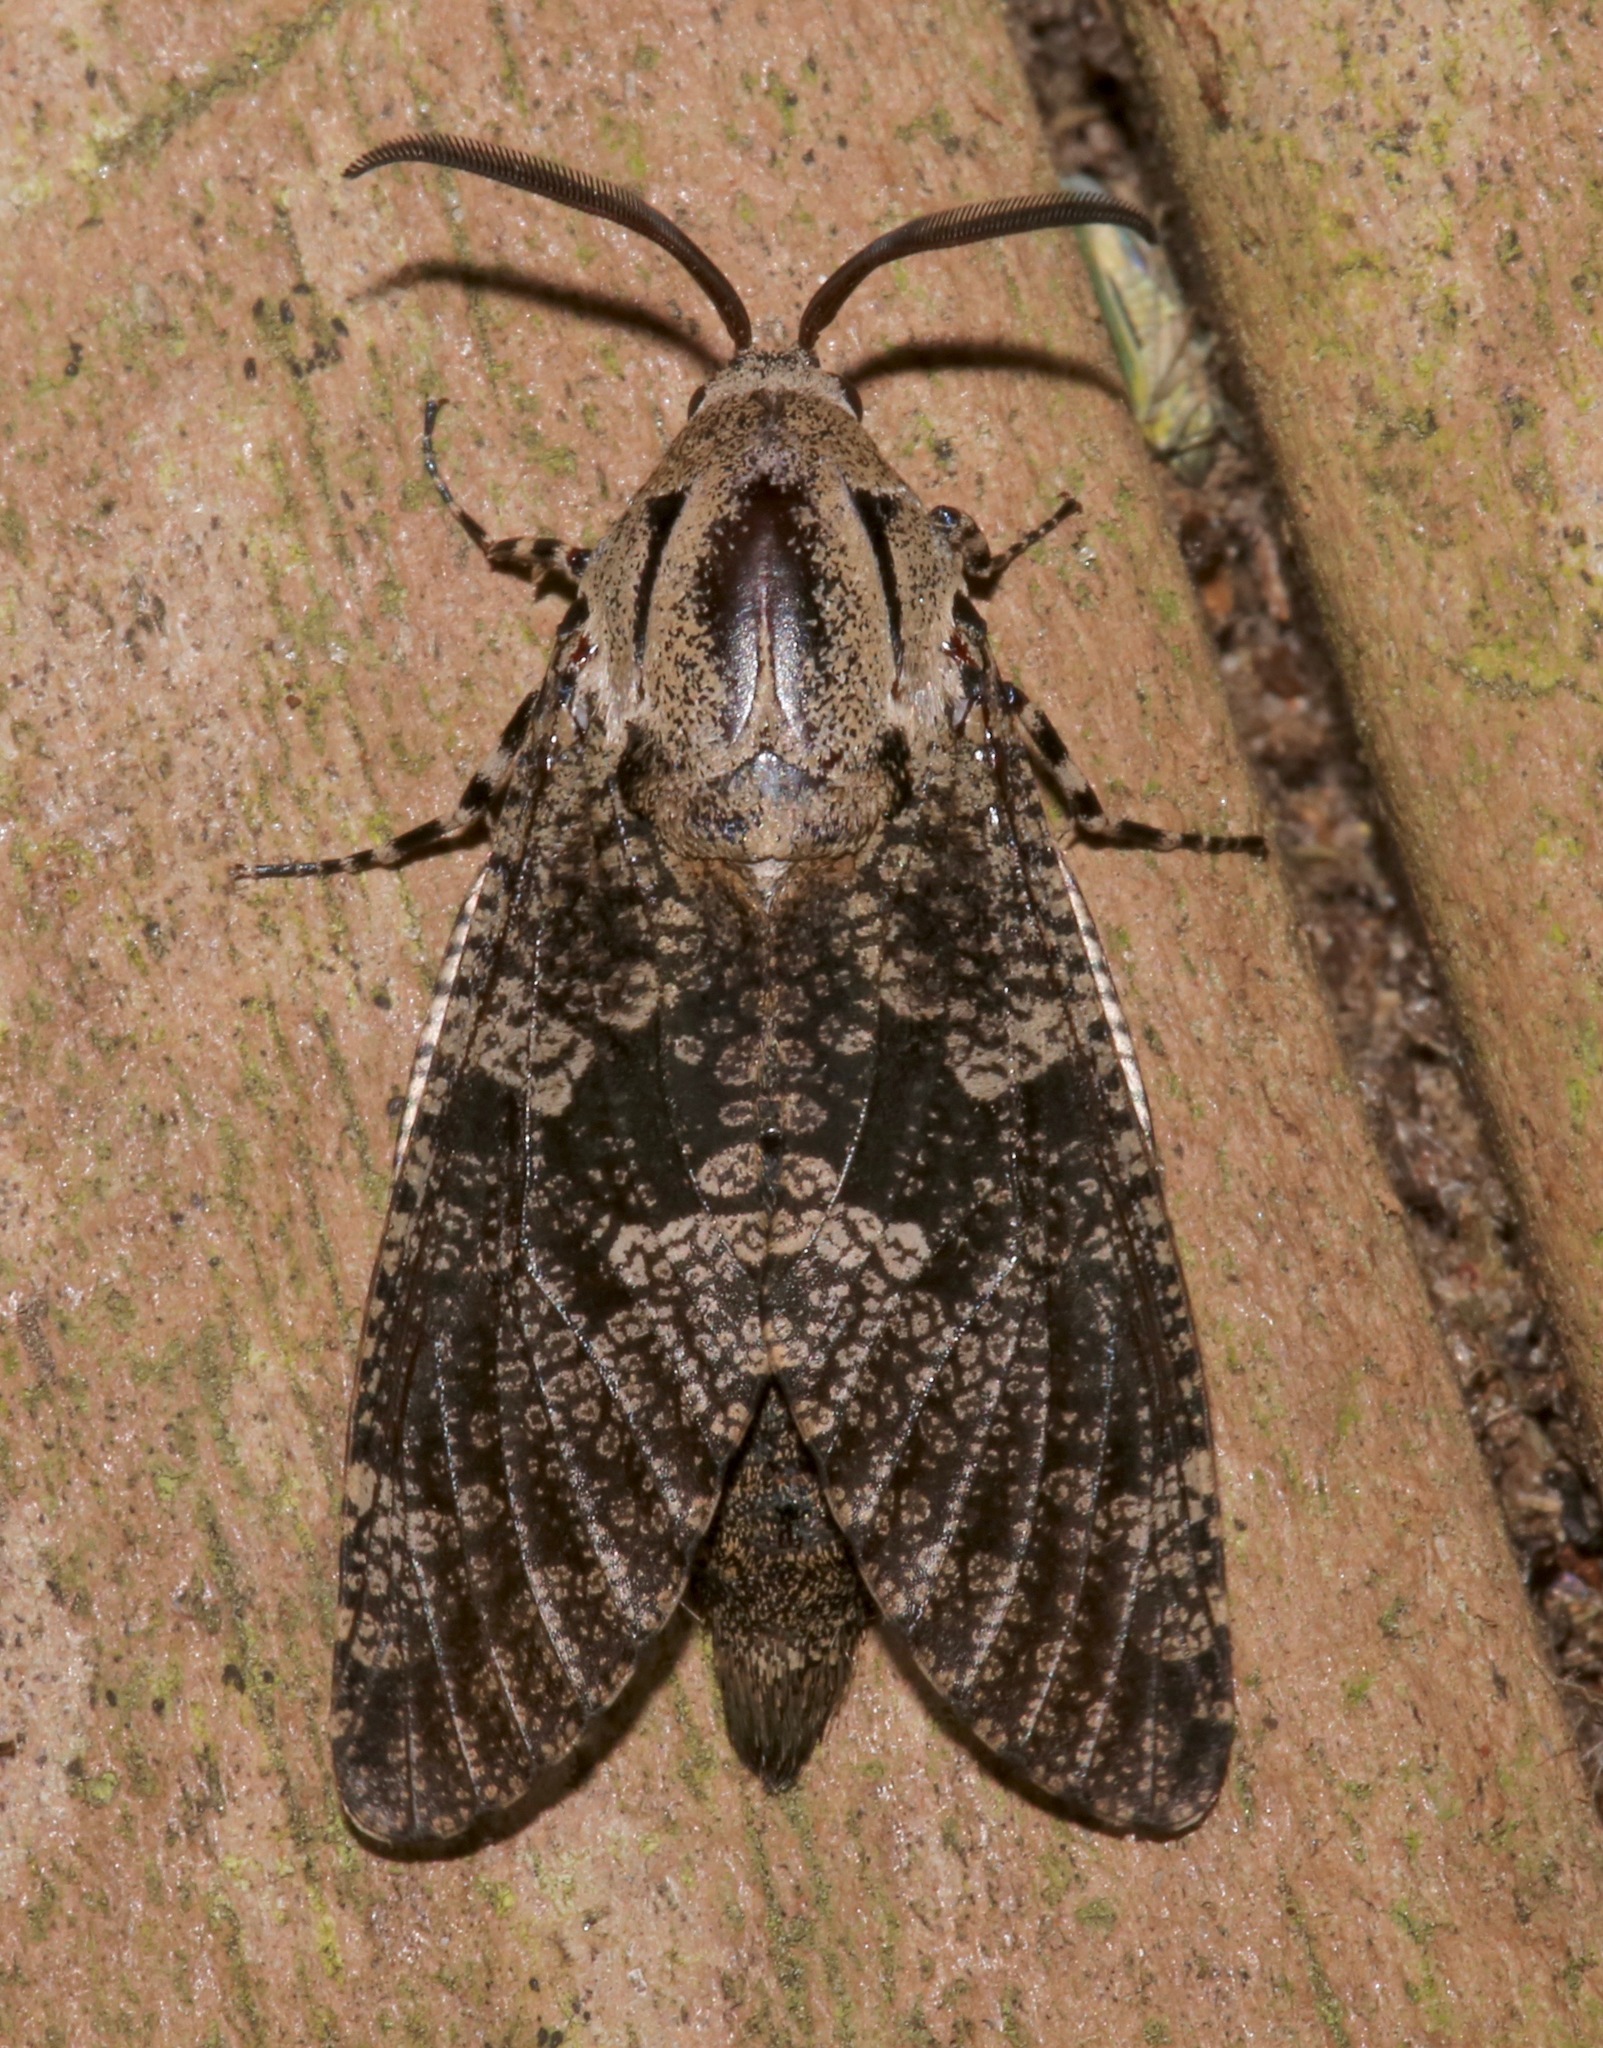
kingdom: Animalia
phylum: Arthropoda
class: Insecta
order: Lepidoptera
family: Cossidae
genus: Prionoxystus
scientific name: Prionoxystus robiniae
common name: Carpenterworm
